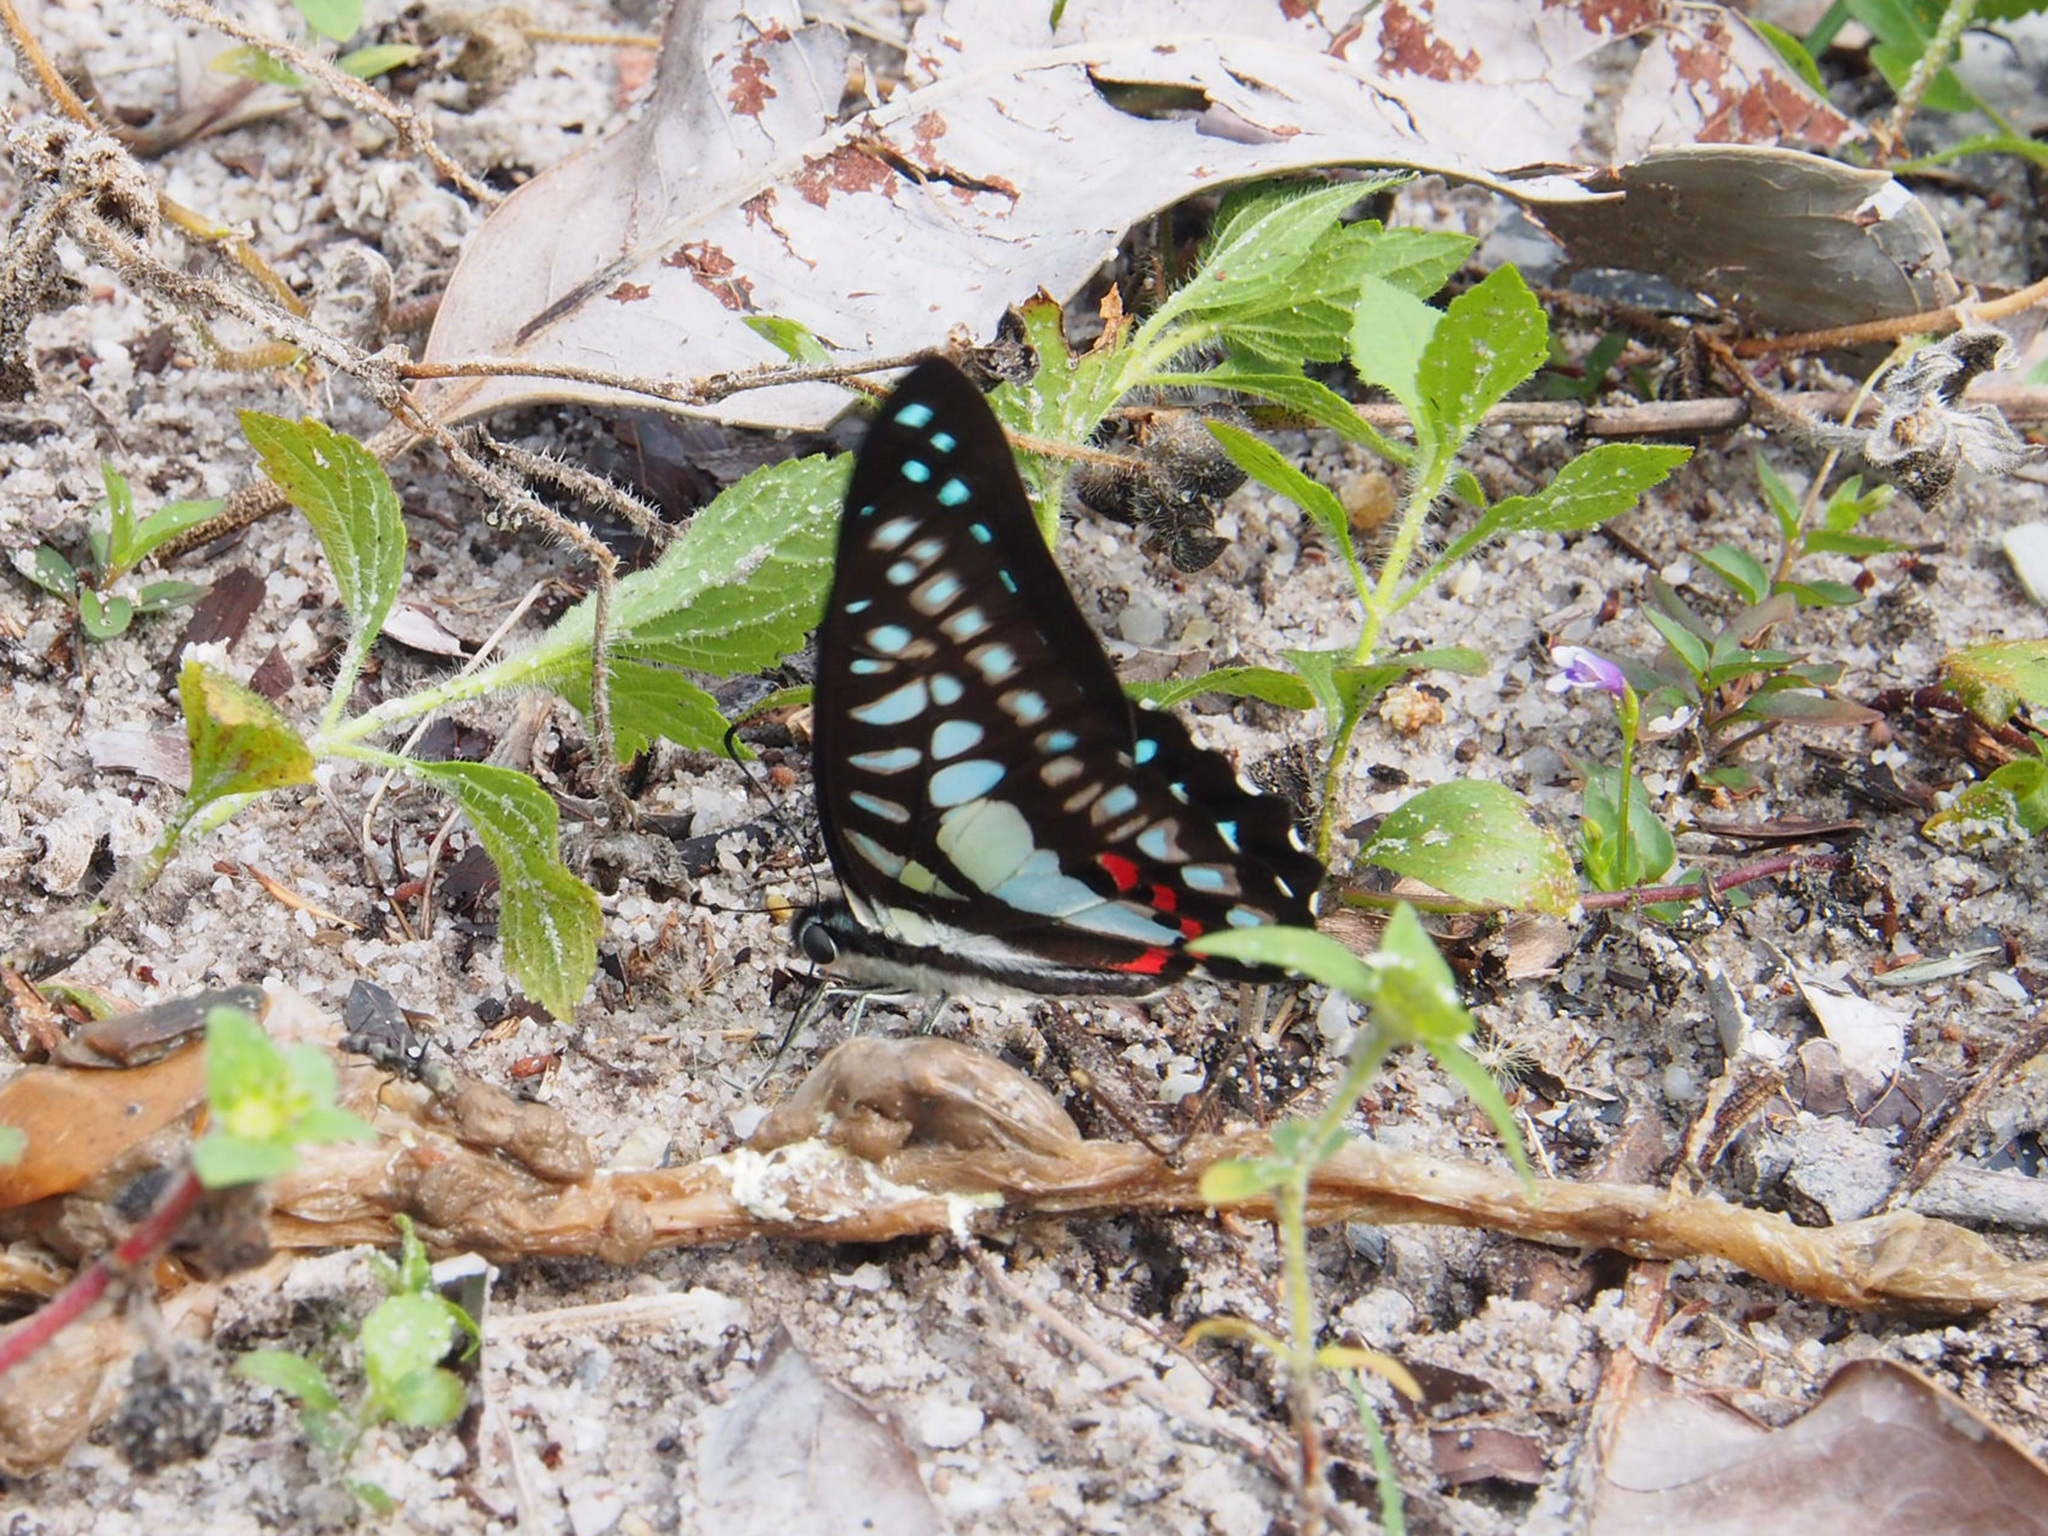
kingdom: Animalia
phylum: Arthropoda
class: Insecta
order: Lepidoptera
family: Papilionidae
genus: Graphium
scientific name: Graphium evemon
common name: Lesser jay
